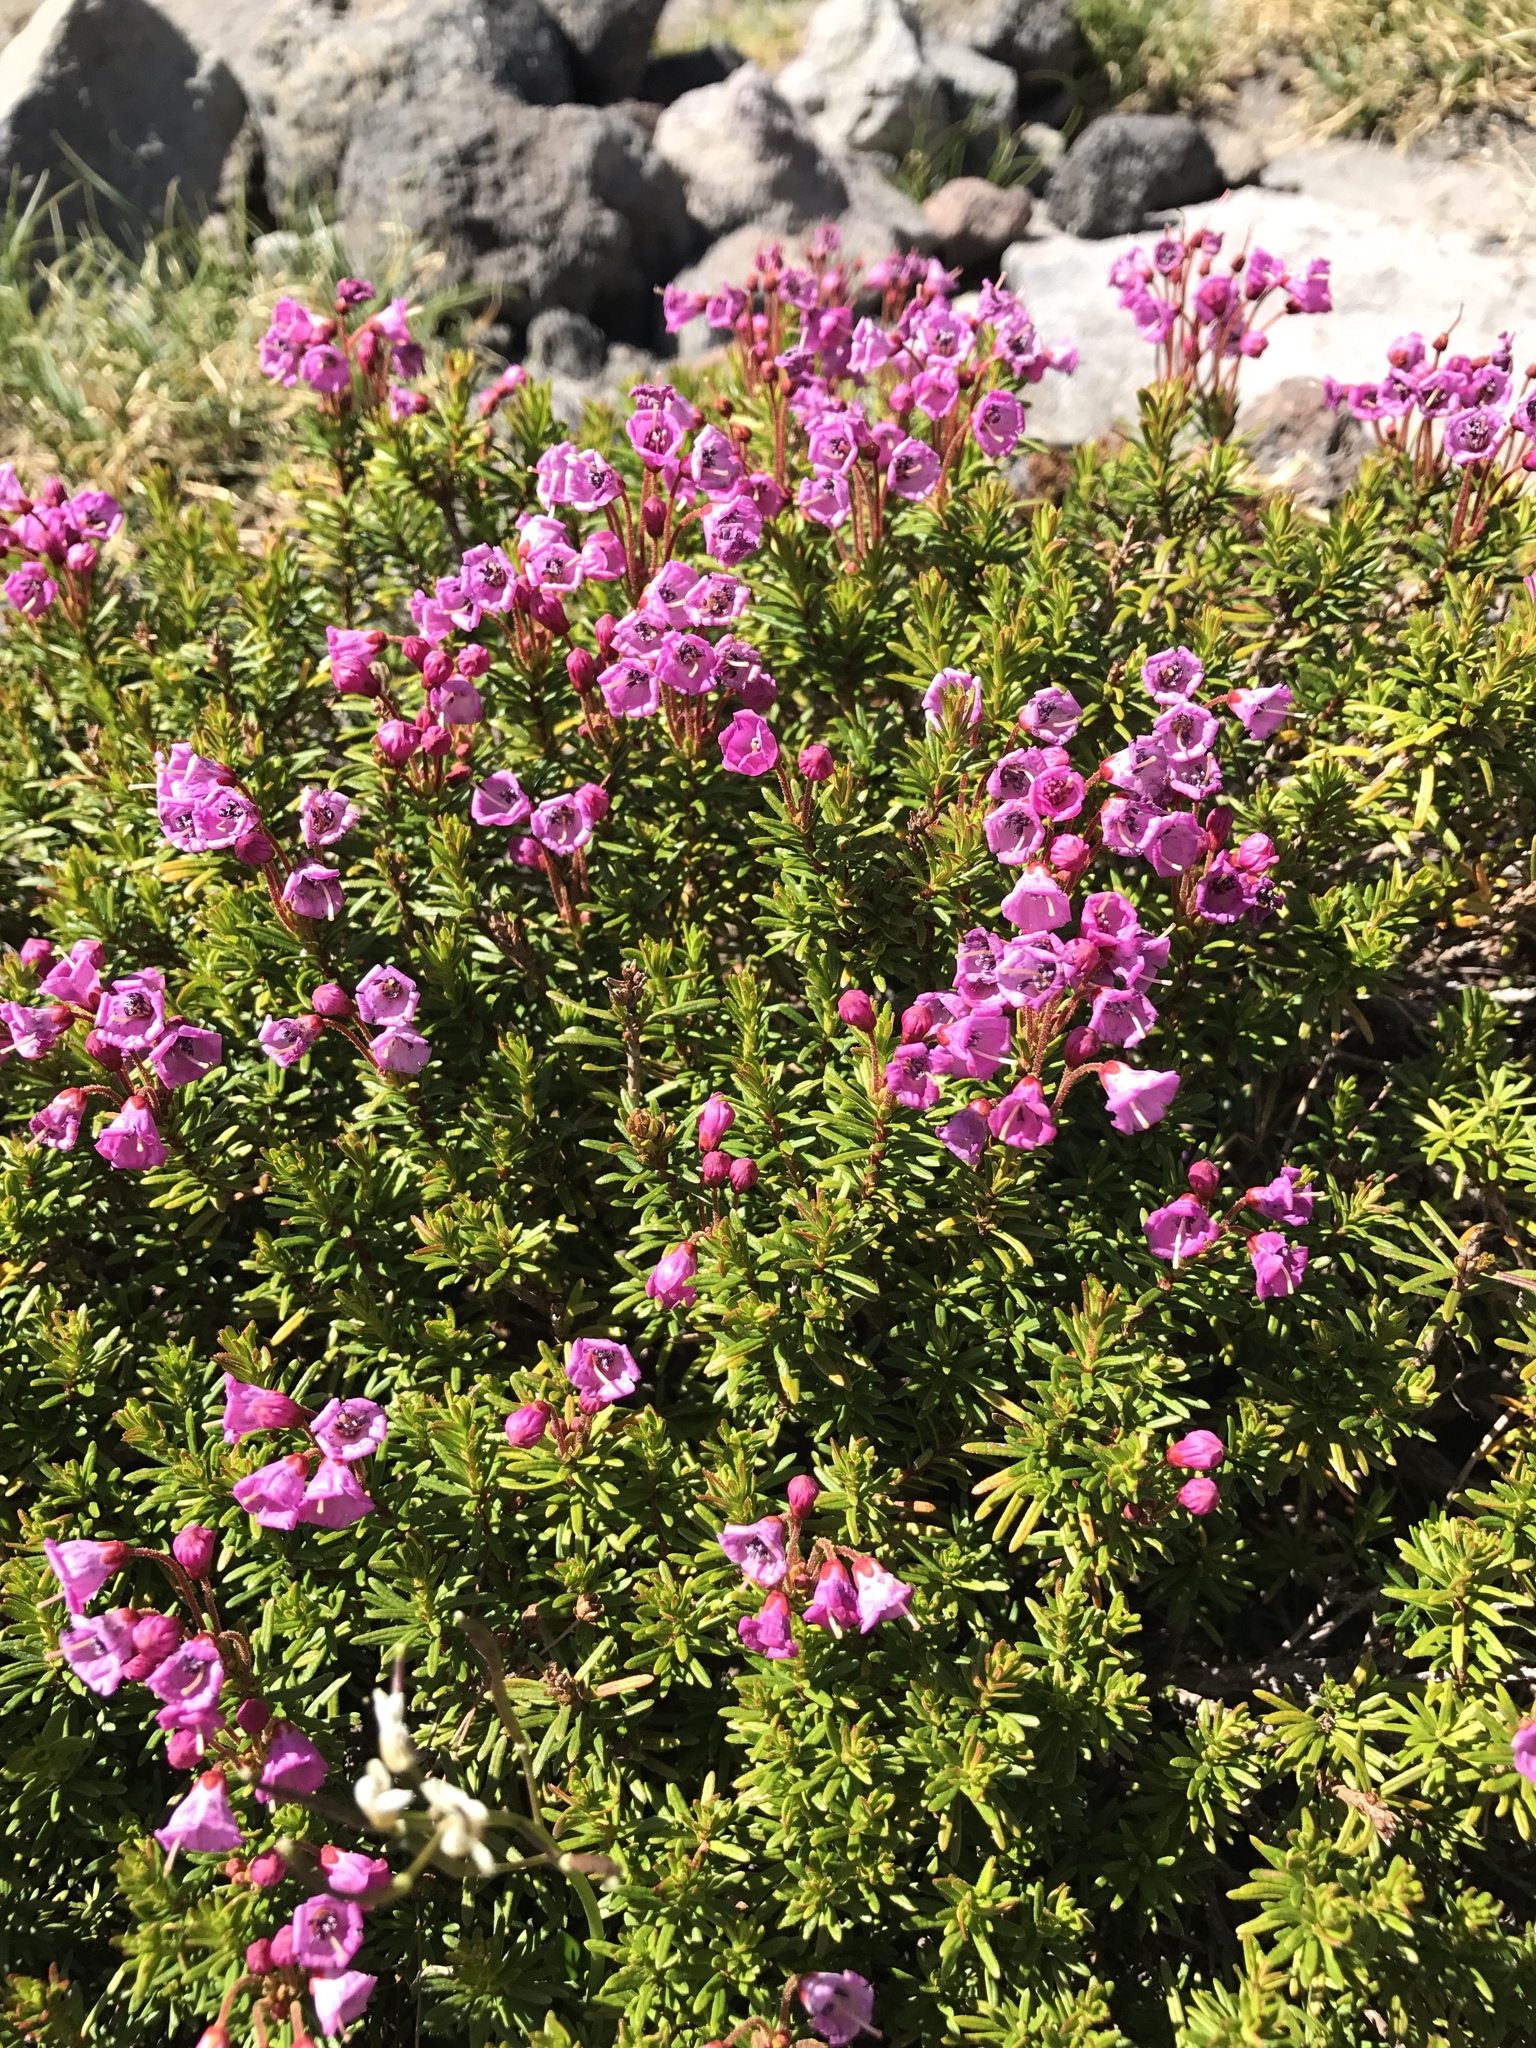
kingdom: Plantae
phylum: Tracheophyta
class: Magnoliopsida
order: Ericales
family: Ericaceae
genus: Phyllodoce
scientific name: Phyllodoce empetriformis
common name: Pink mountain heather
